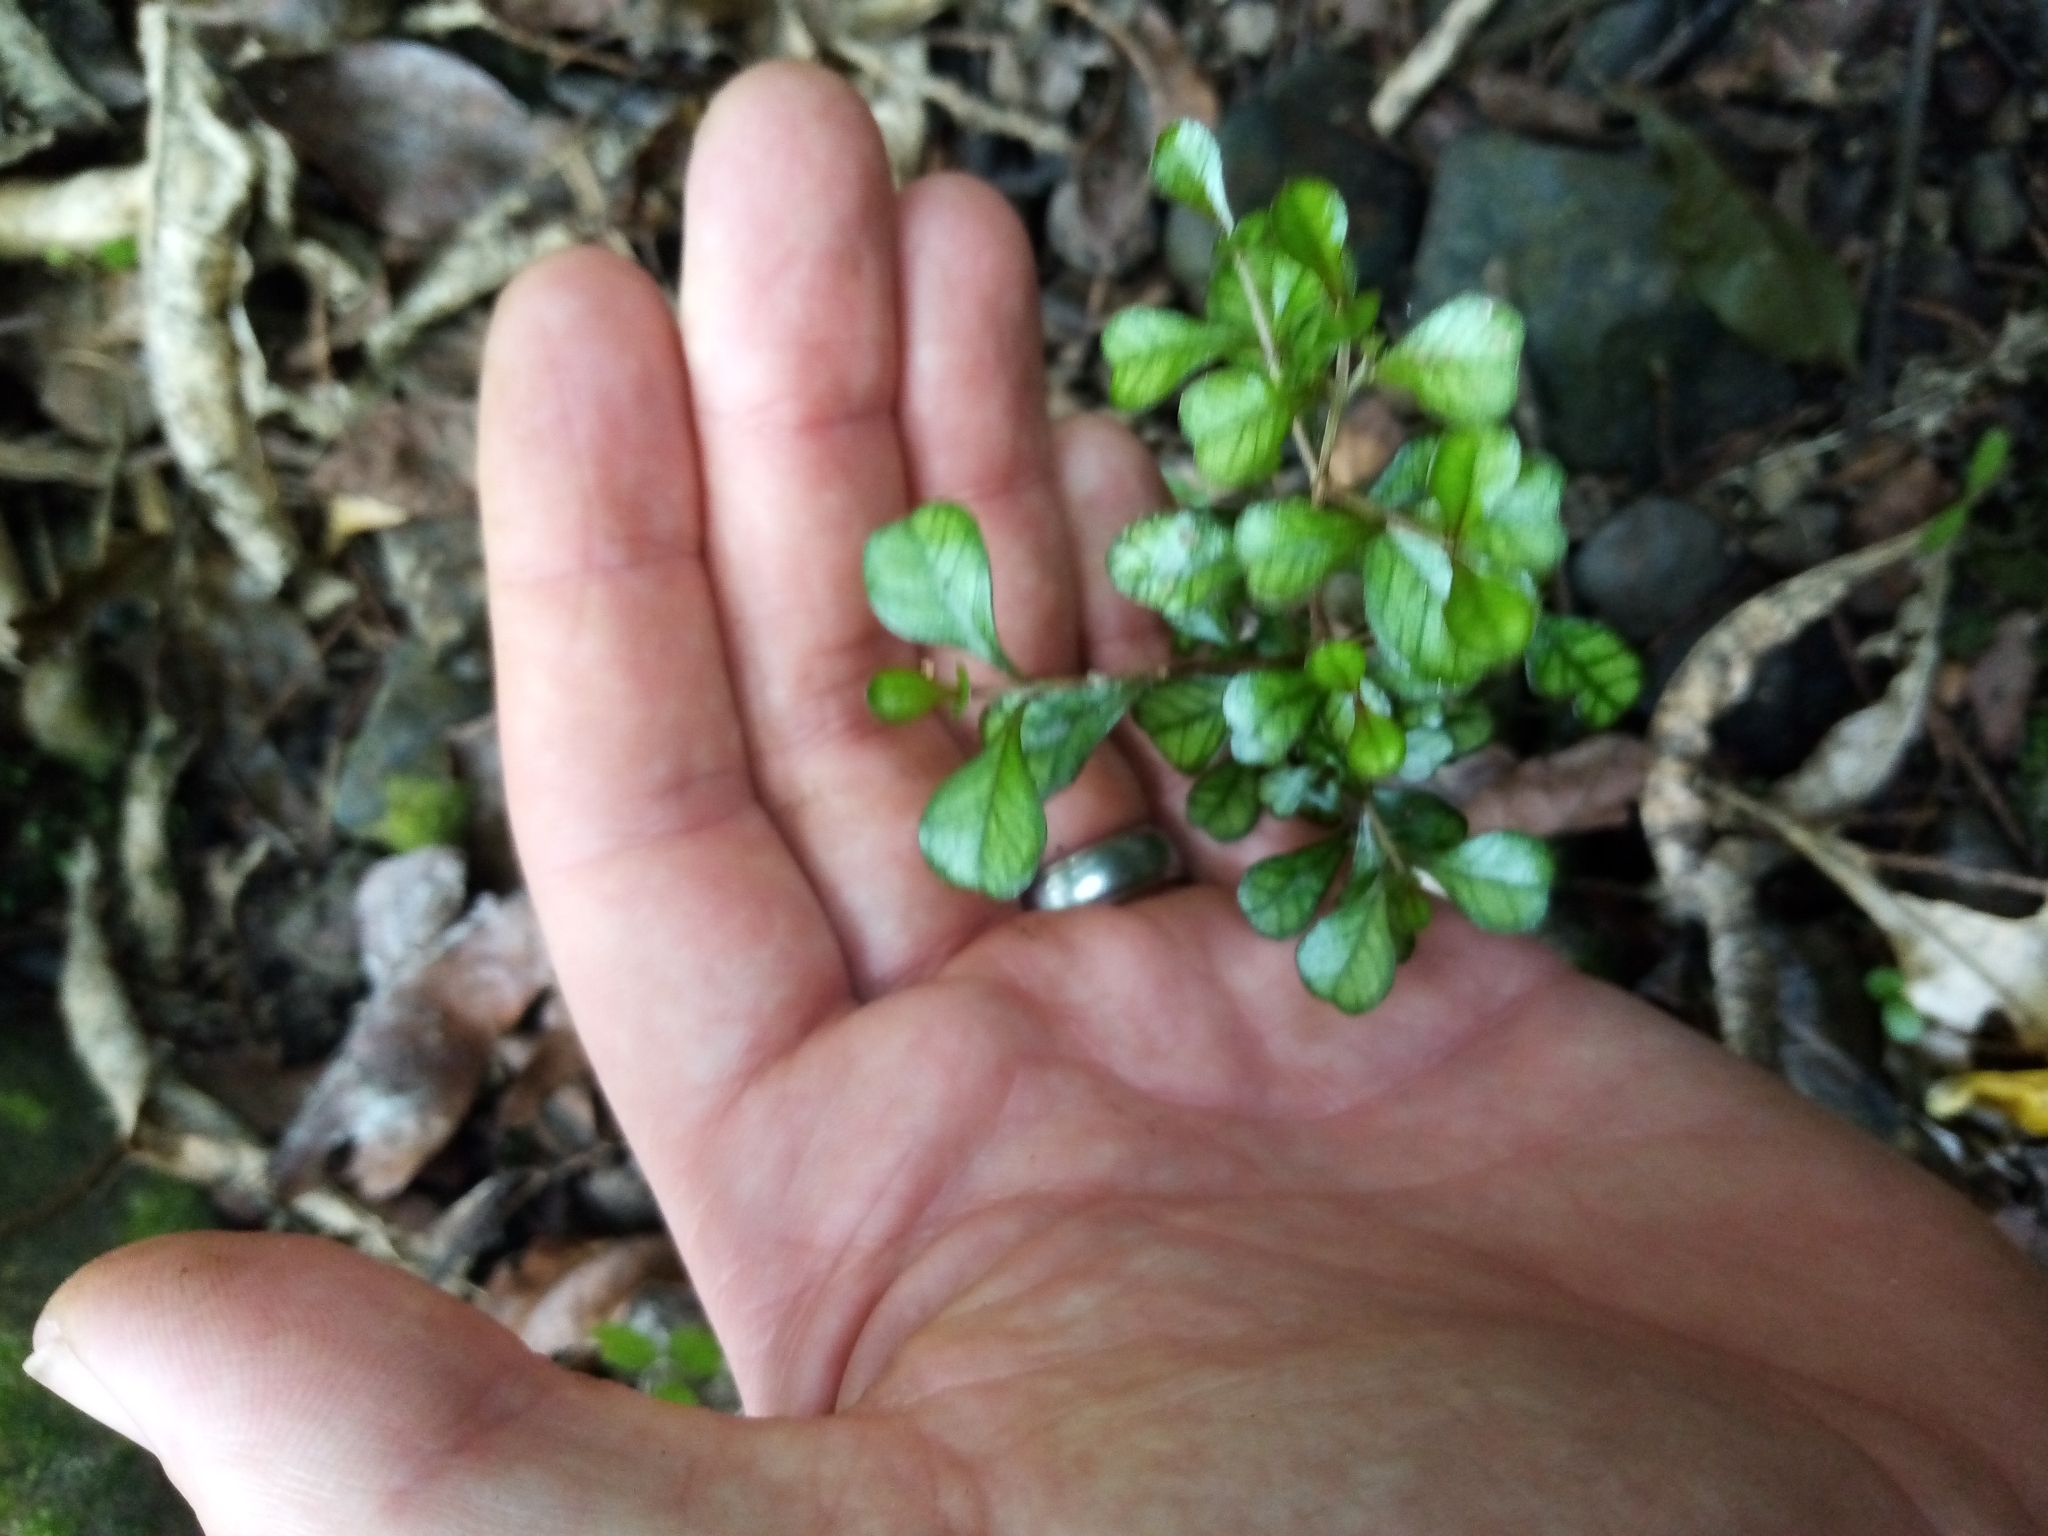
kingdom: Plantae
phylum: Tracheophyta
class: Magnoliopsida
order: Myrtales
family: Myrtaceae
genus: Lophomyrtus
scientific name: Lophomyrtus obcordata
